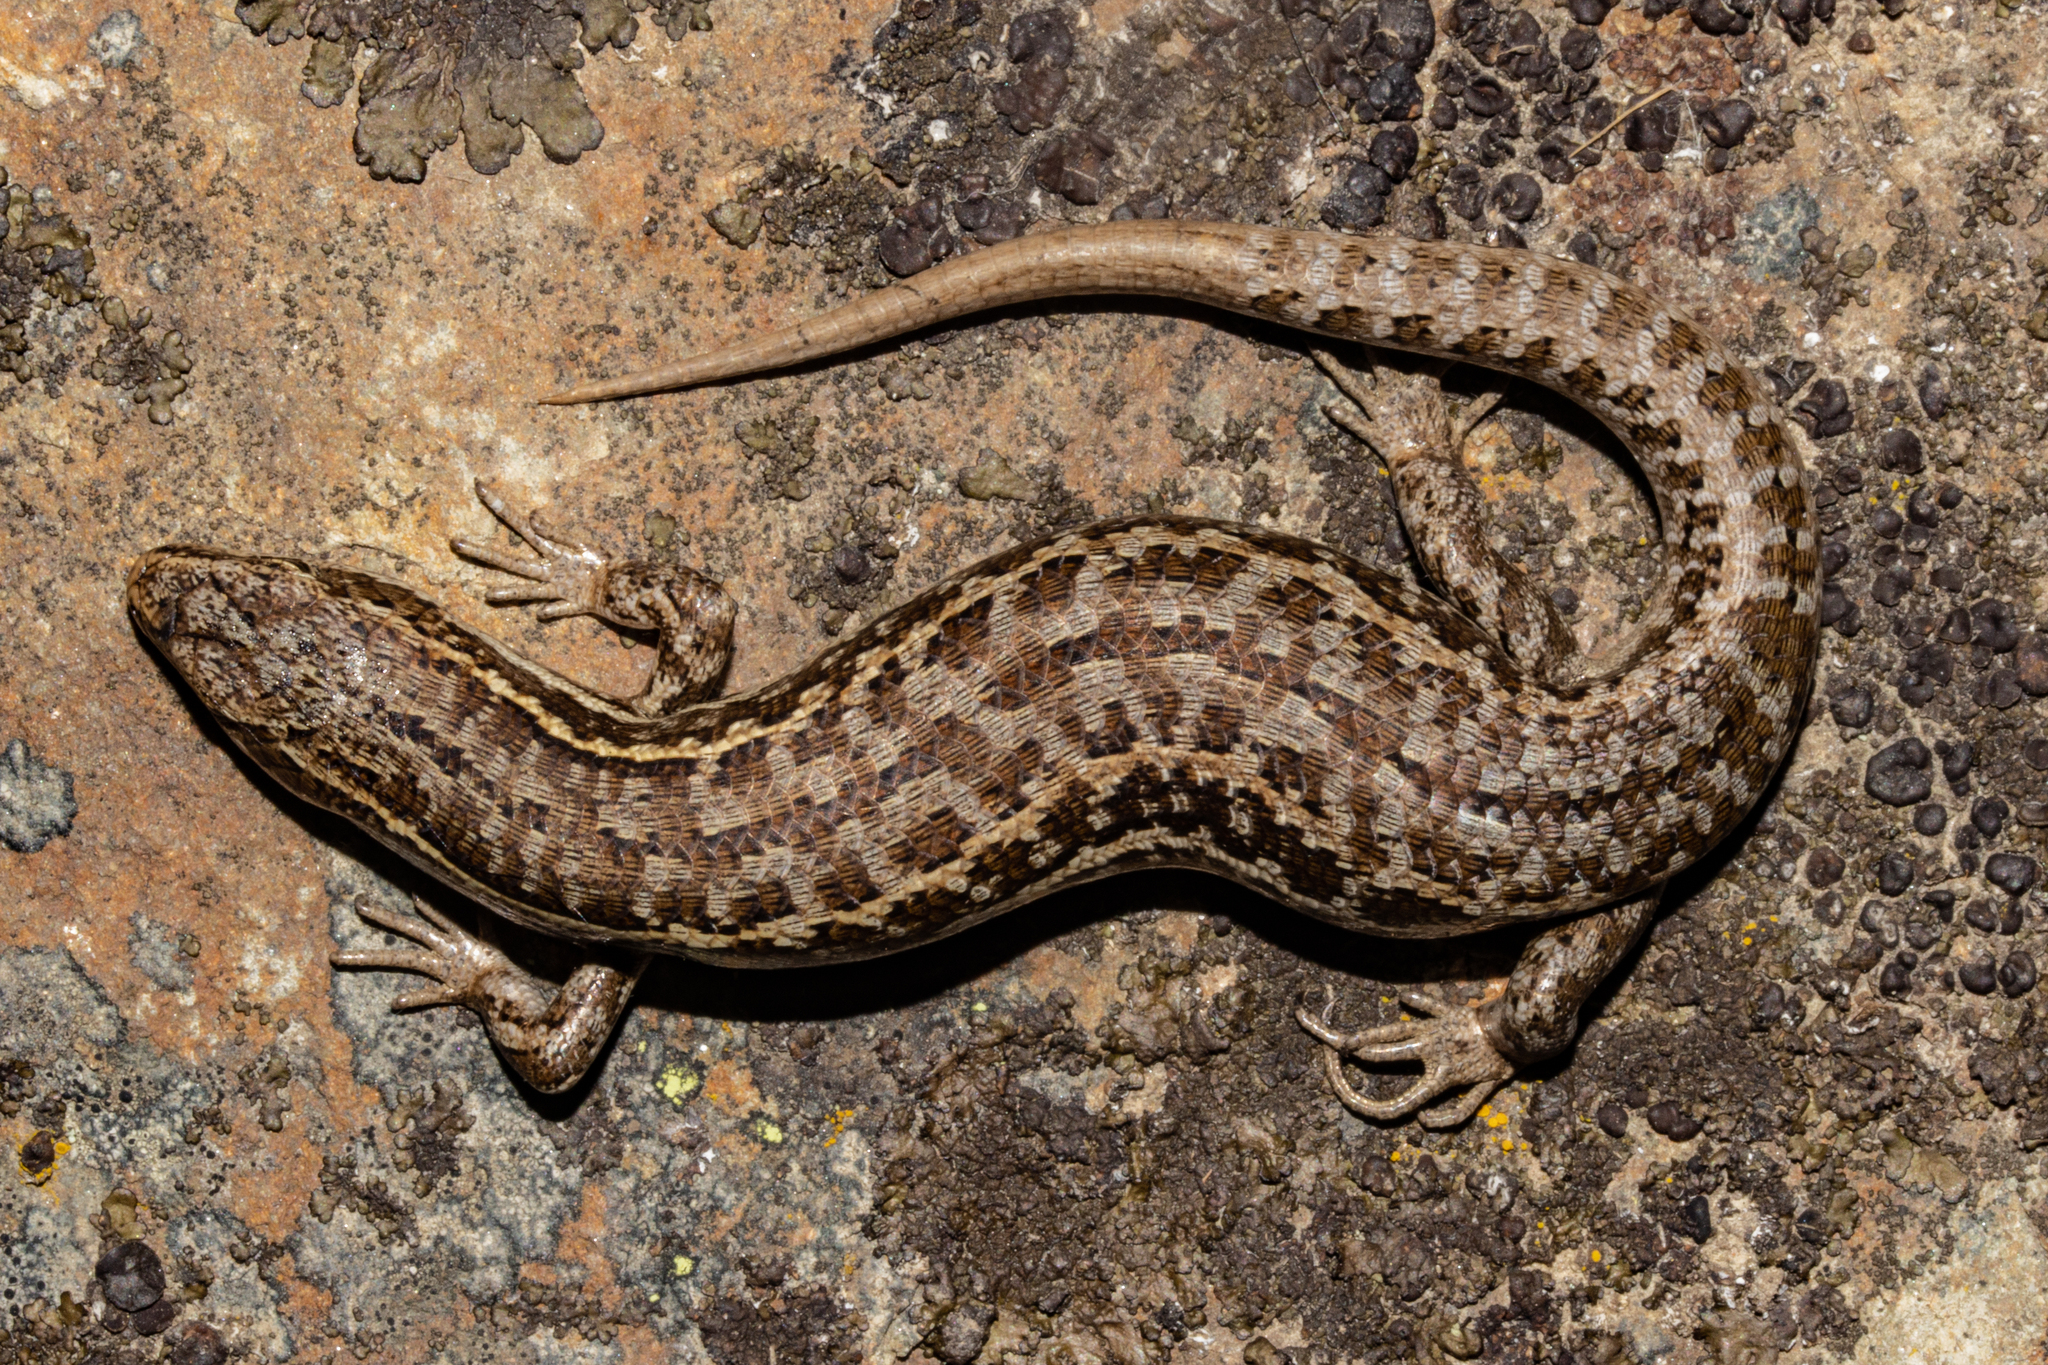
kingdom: Animalia
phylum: Chordata
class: Squamata
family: Scincidae
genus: Oligosoma
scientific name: Oligosoma maccanni
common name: Mccann’s skink
